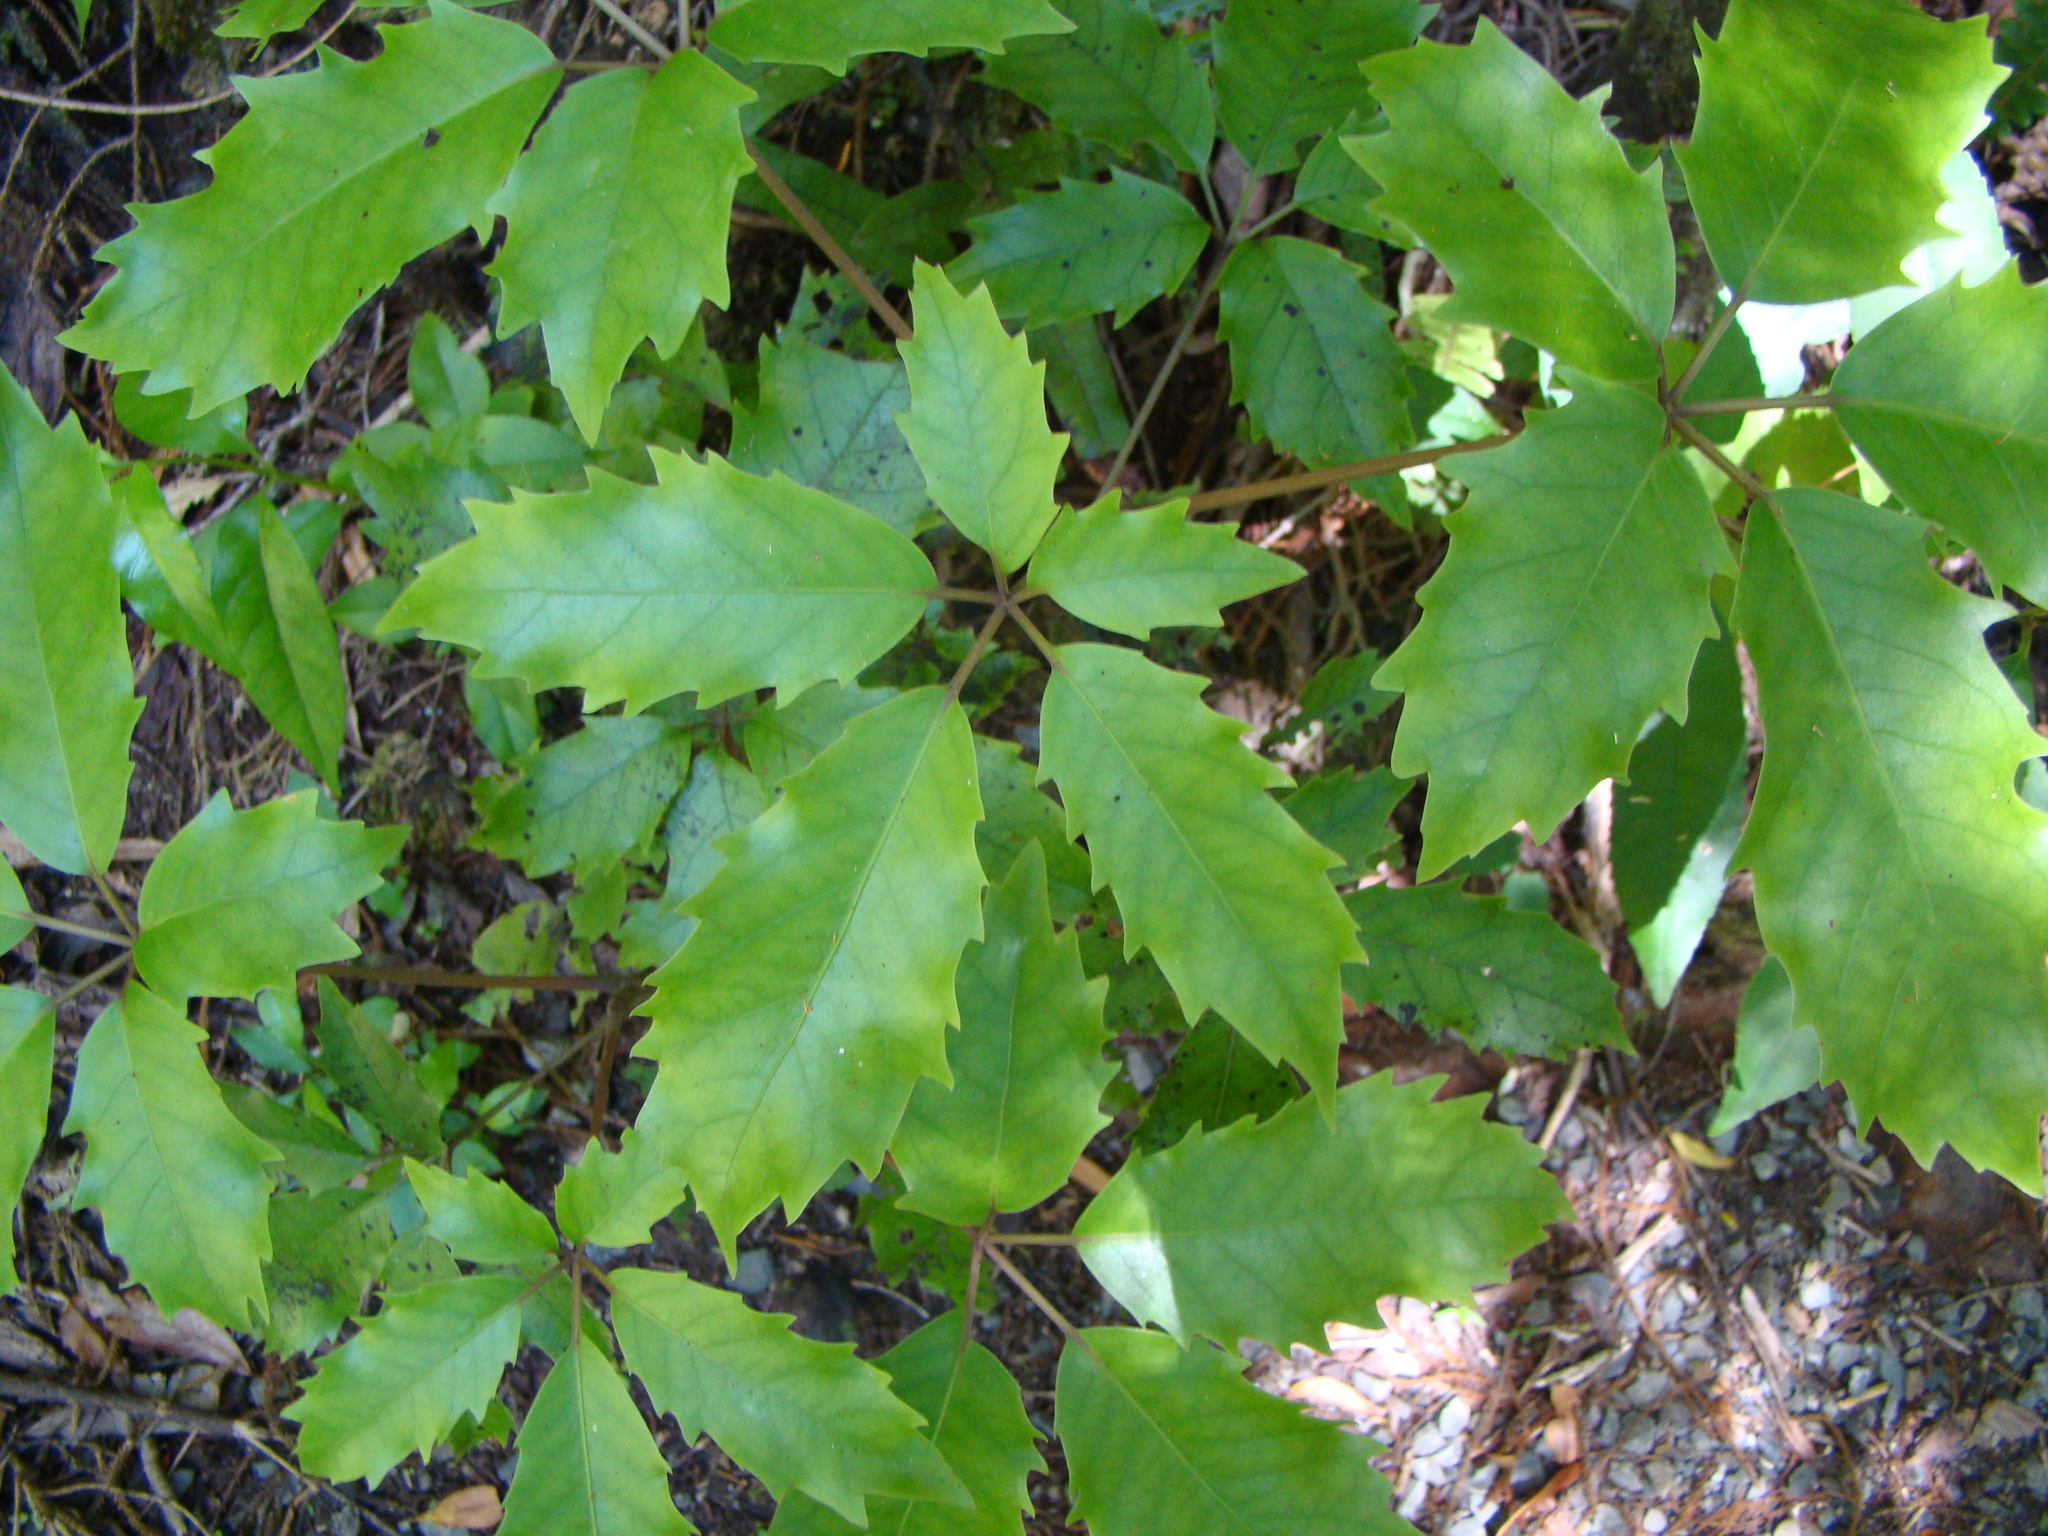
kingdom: Plantae
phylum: Tracheophyta
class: Magnoliopsida
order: Apiales
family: Araliaceae
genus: Neopanax
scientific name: Neopanax arboreus
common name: Five-fingers
